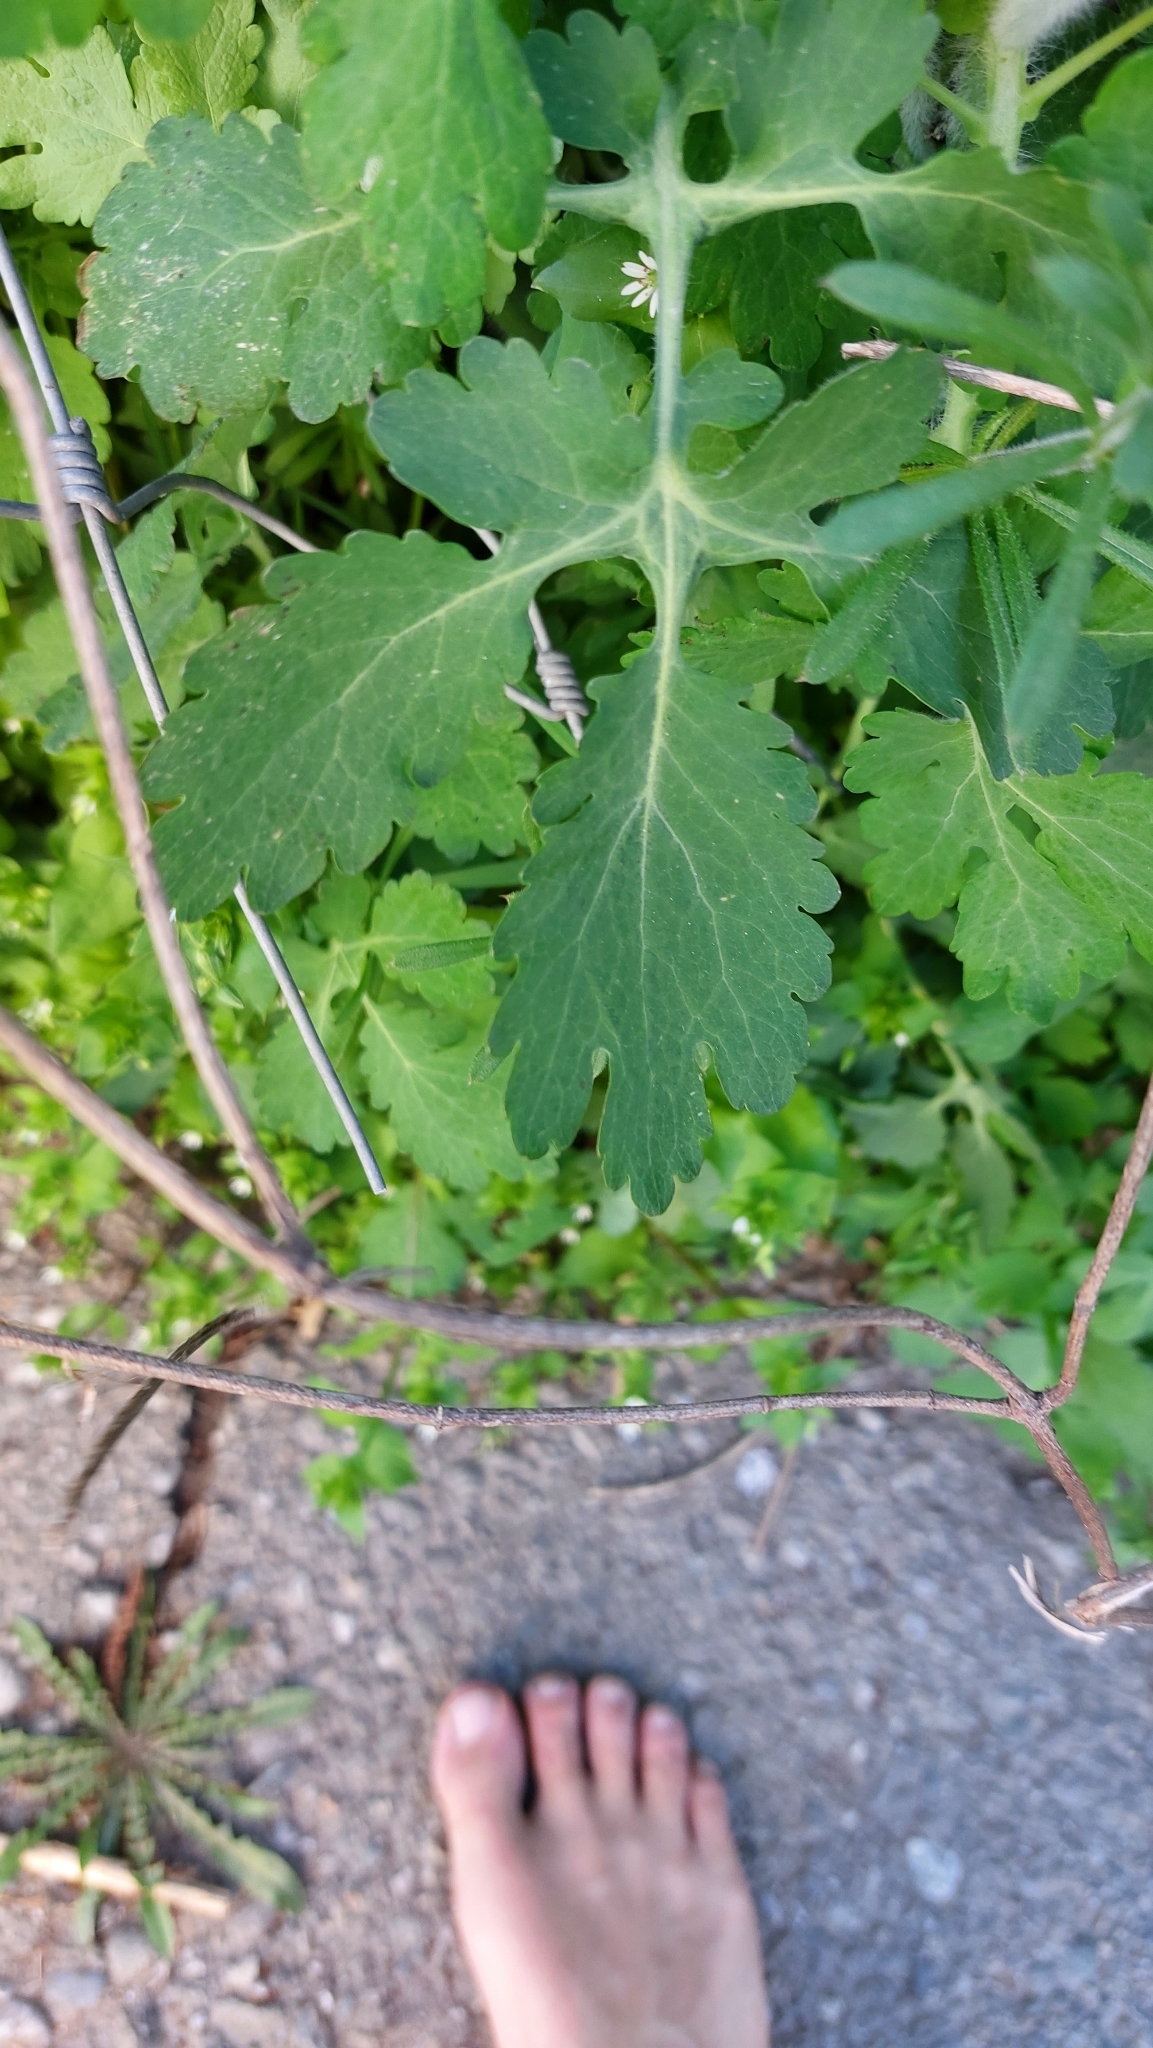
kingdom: Plantae
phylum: Tracheophyta
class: Magnoliopsida
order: Ranunculales
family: Papaveraceae
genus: Chelidonium
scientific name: Chelidonium majus
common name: Greater celandine
